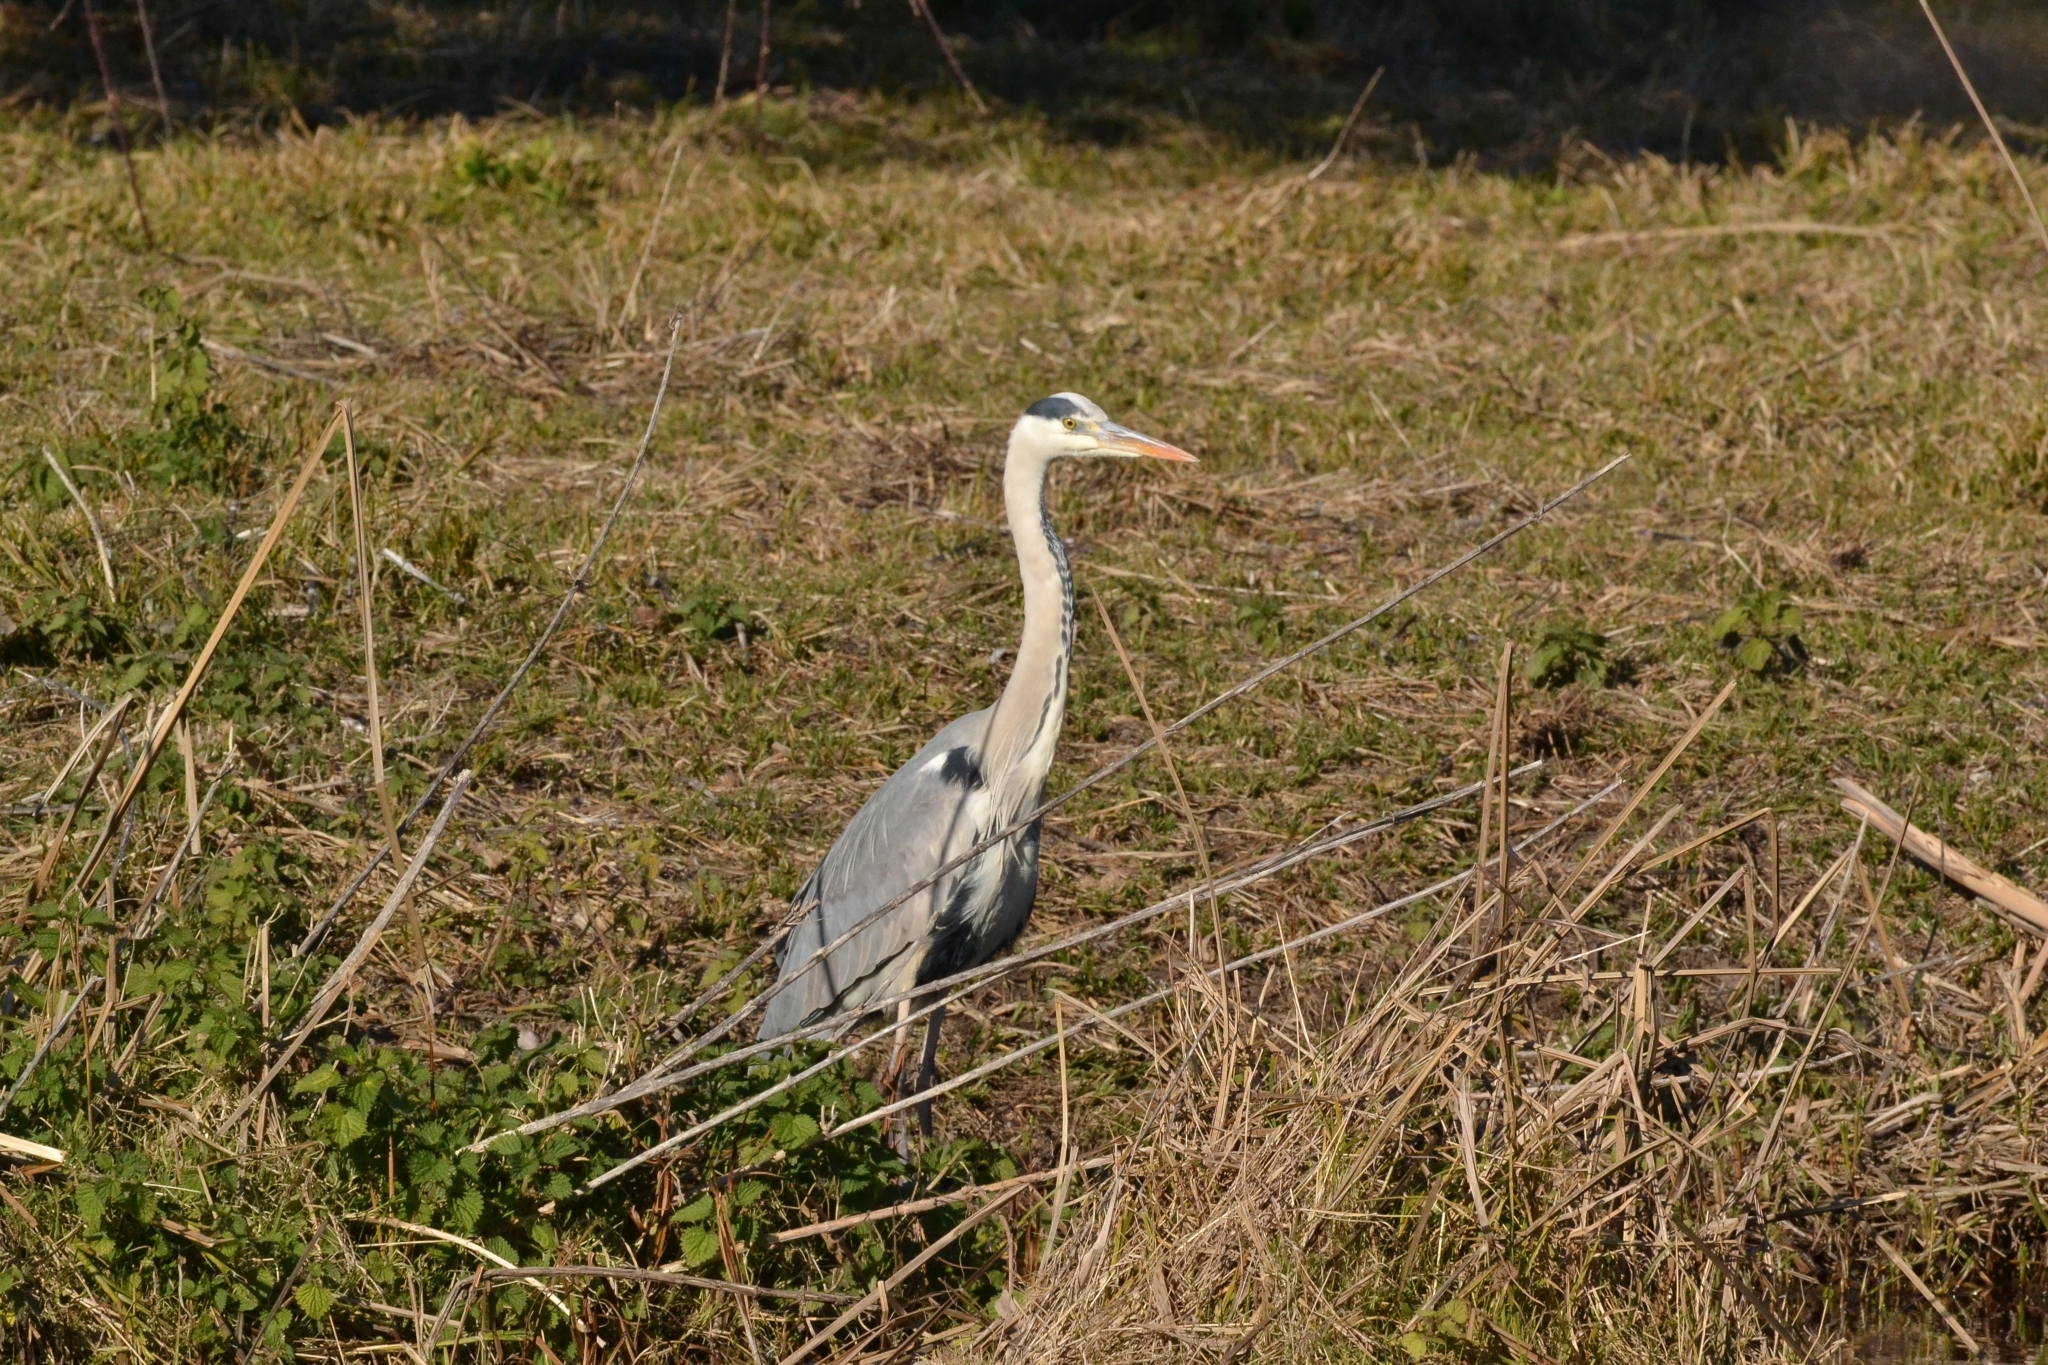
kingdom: Animalia
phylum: Chordata
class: Aves
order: Pelecaniformes
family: Ardeidae
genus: Ardea
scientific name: Ardea cinerea
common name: Grey heron
